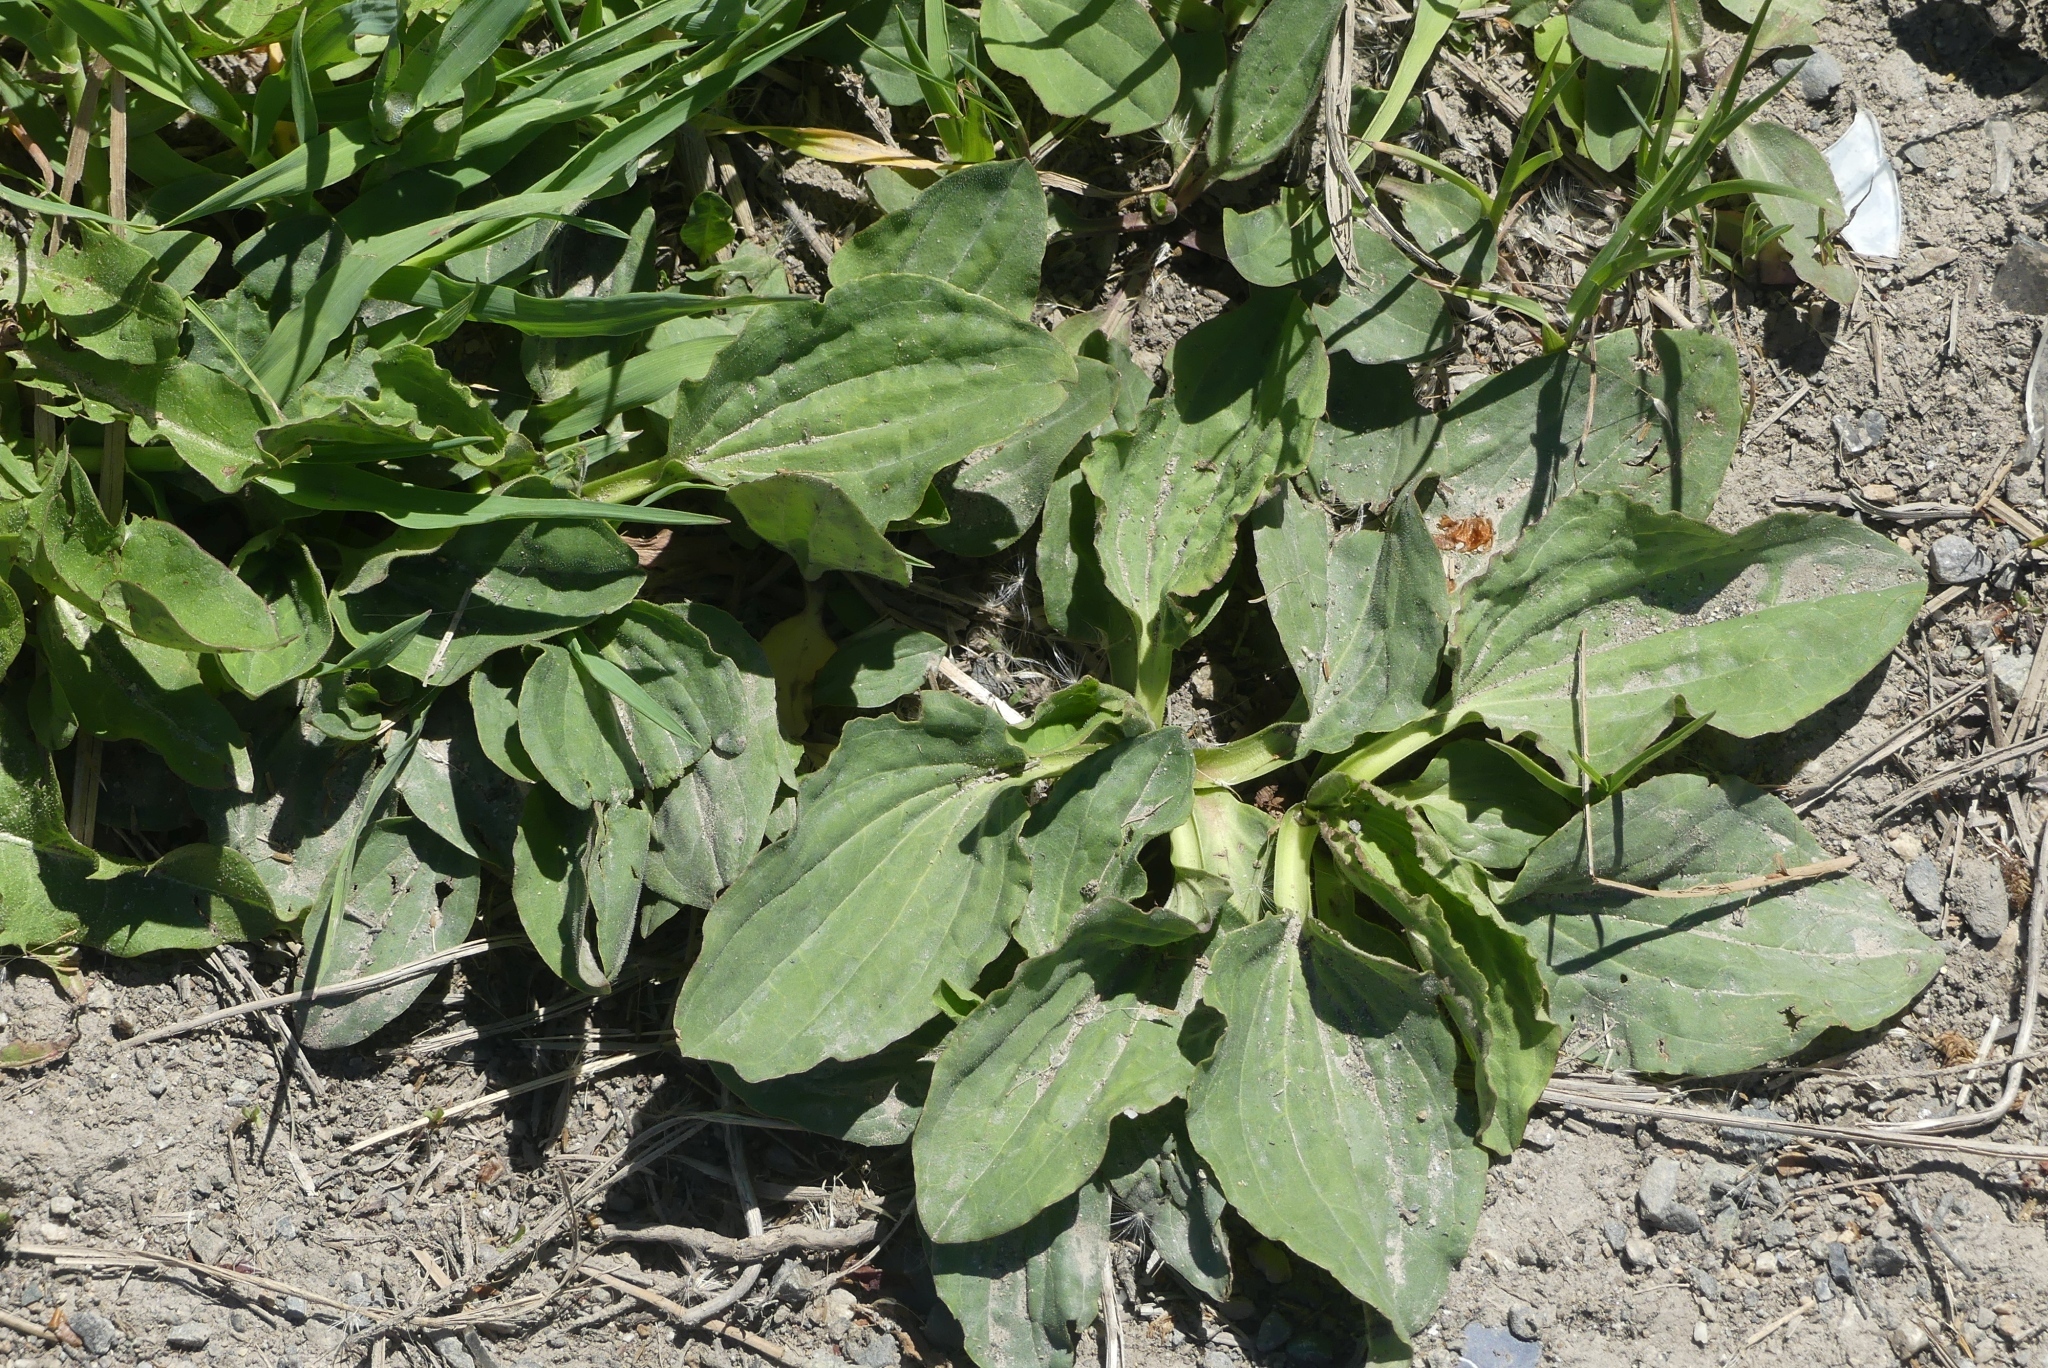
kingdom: Plantae
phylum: Tracheophyta
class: Magnoliopsida
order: Lamiales
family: Plantaginaceae
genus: Plantago
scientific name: Plantago major
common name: Common plantain
